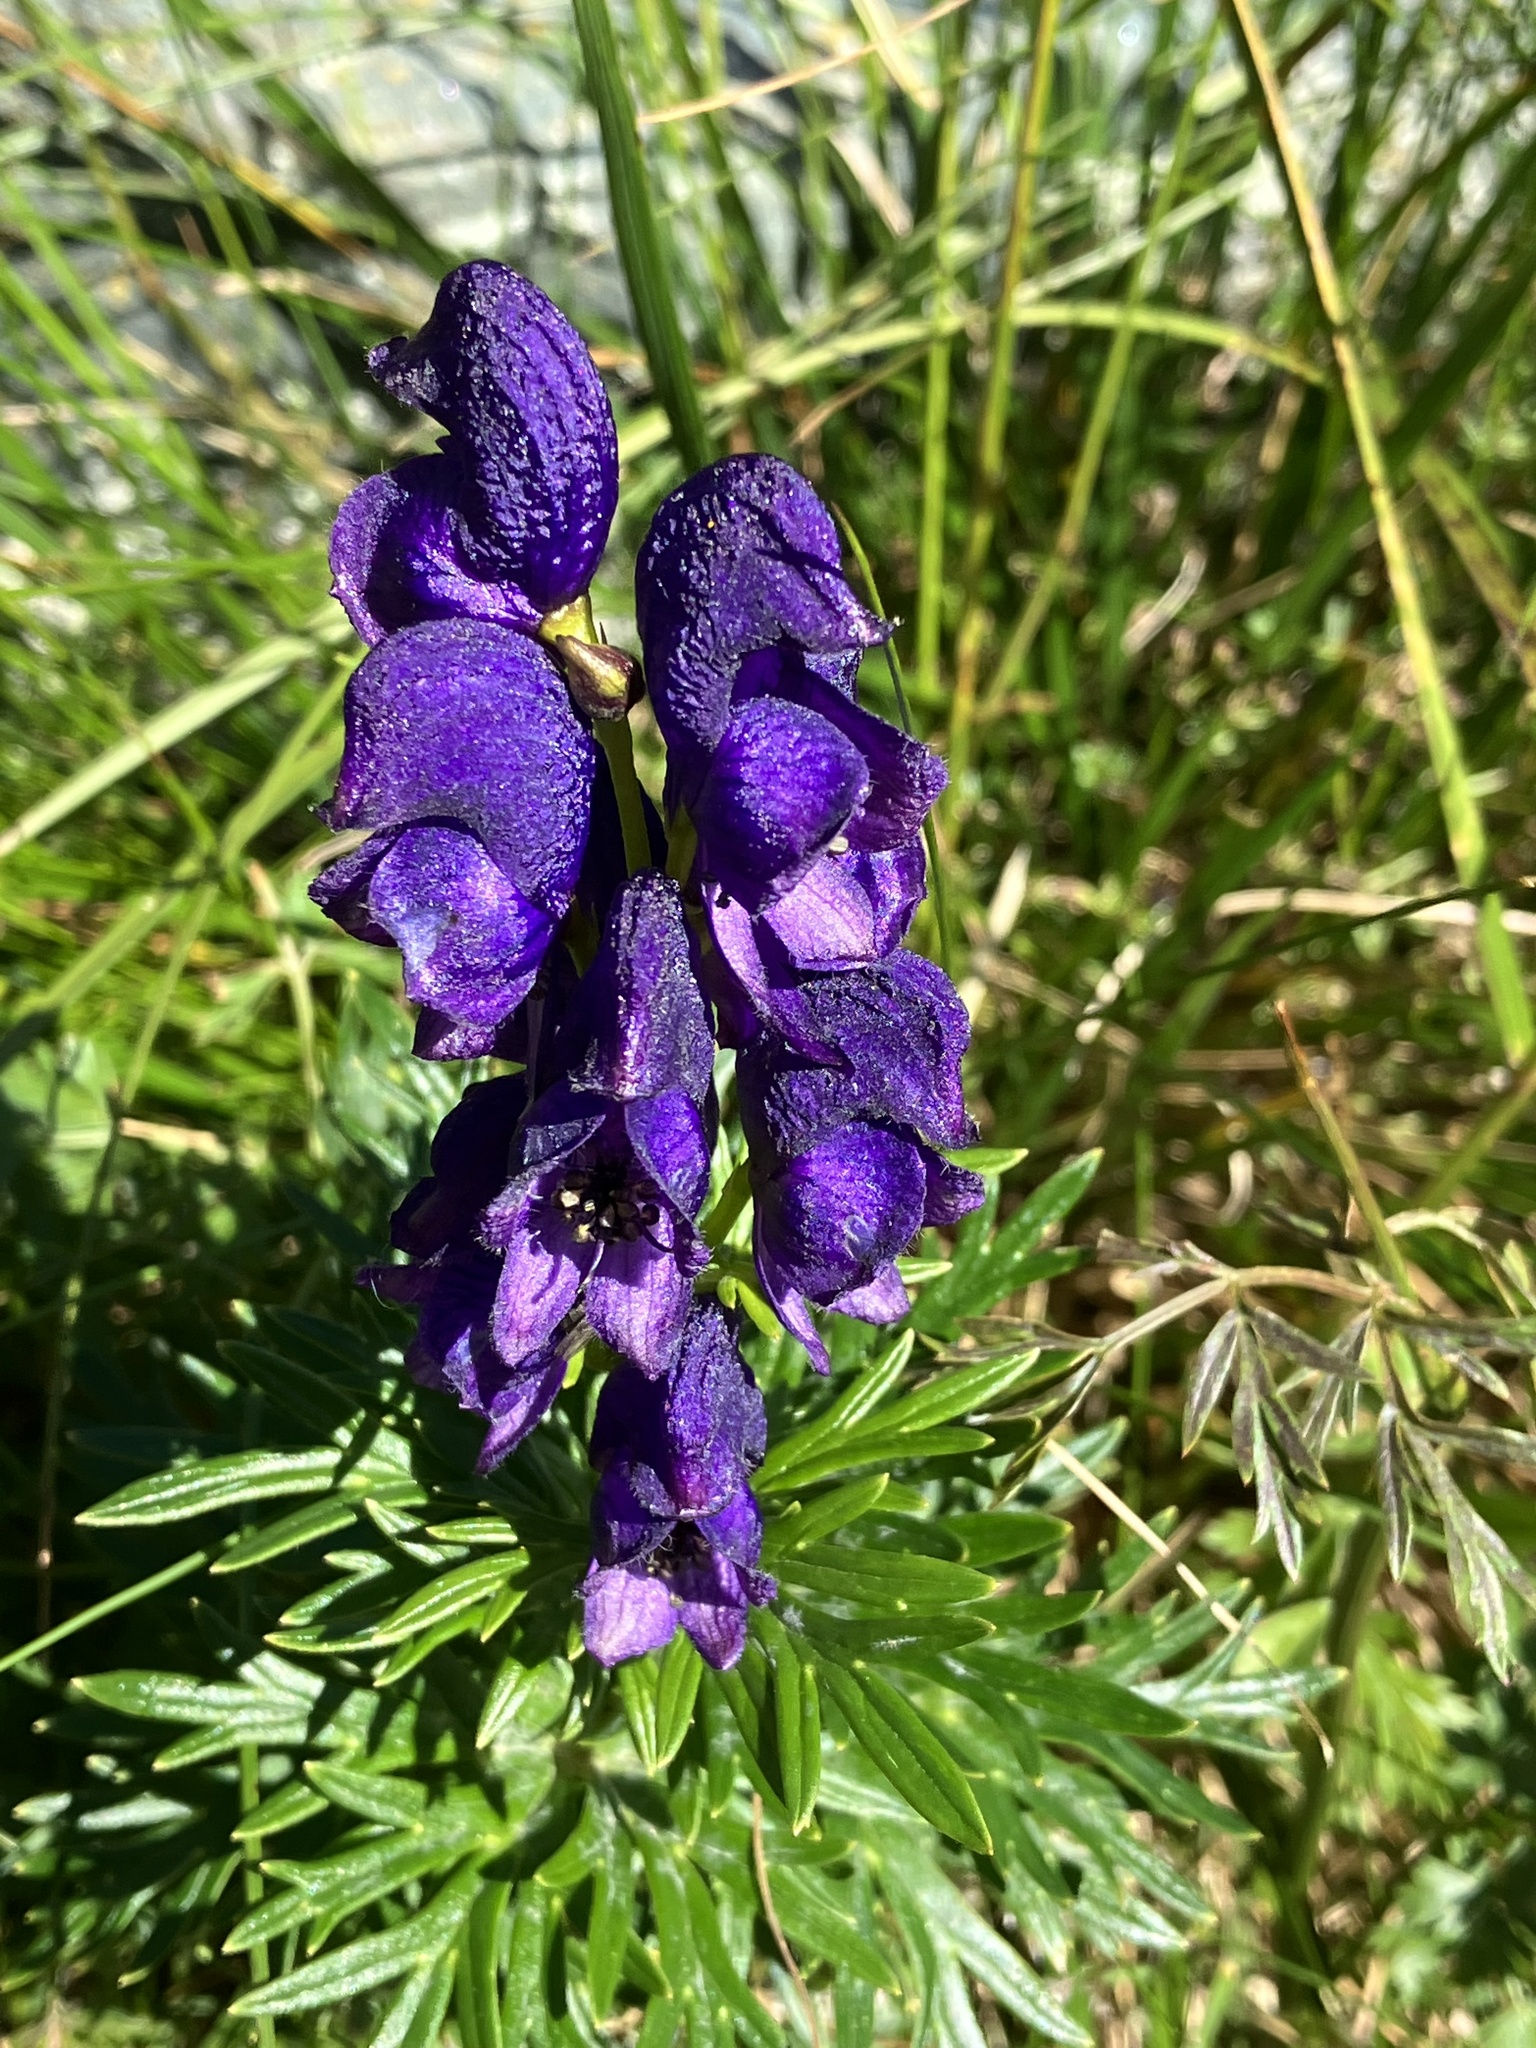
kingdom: Plantae
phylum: Tracheophyta
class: Magnoliopsida
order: Ranunculales
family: Ranunculaceae
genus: Aconitum
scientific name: Aconitum tauricum
